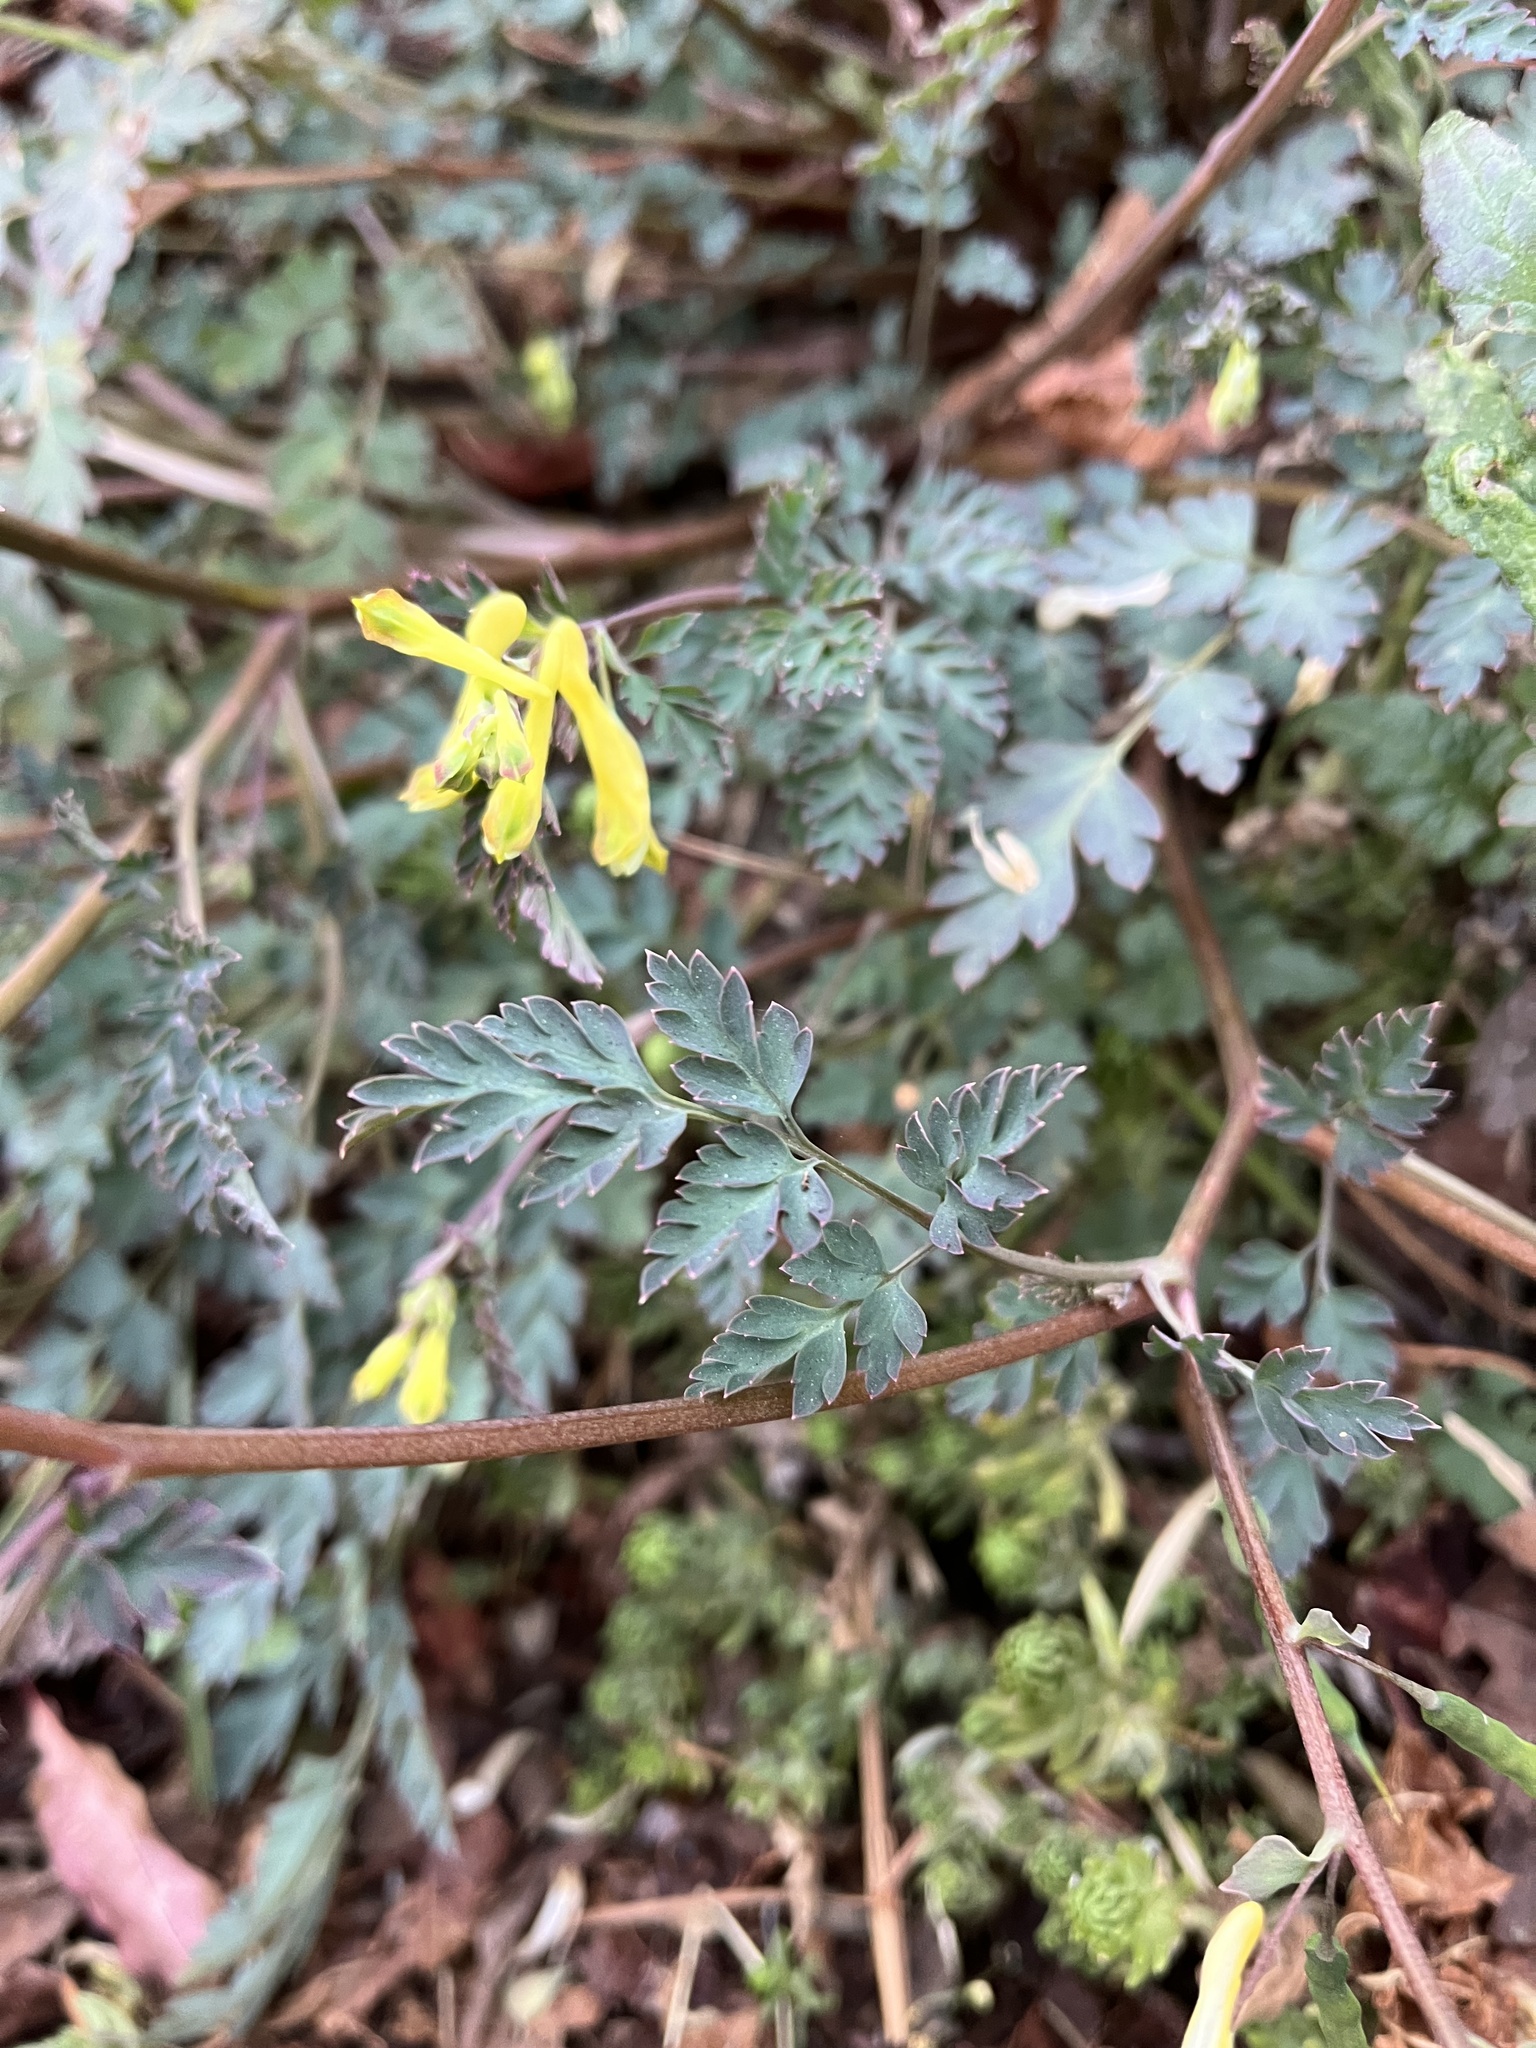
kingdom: Plantae
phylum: Tracheophyta
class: Magnoliopsida
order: Ranunculales
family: Papaveraceae
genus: Corydalis
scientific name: Corydalis pallida
